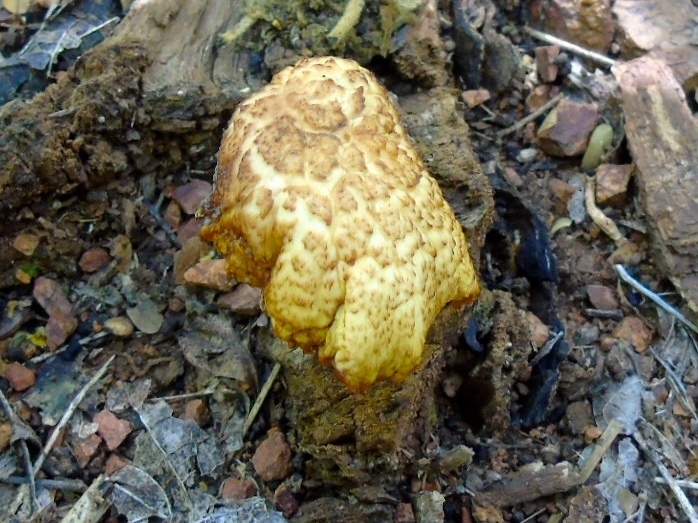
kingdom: Fungi
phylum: Basidiomycota
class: Agaricomycetes
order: Agaricales
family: Hymenogastraceae
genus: Gymnopilus
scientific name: Gymnopilus
